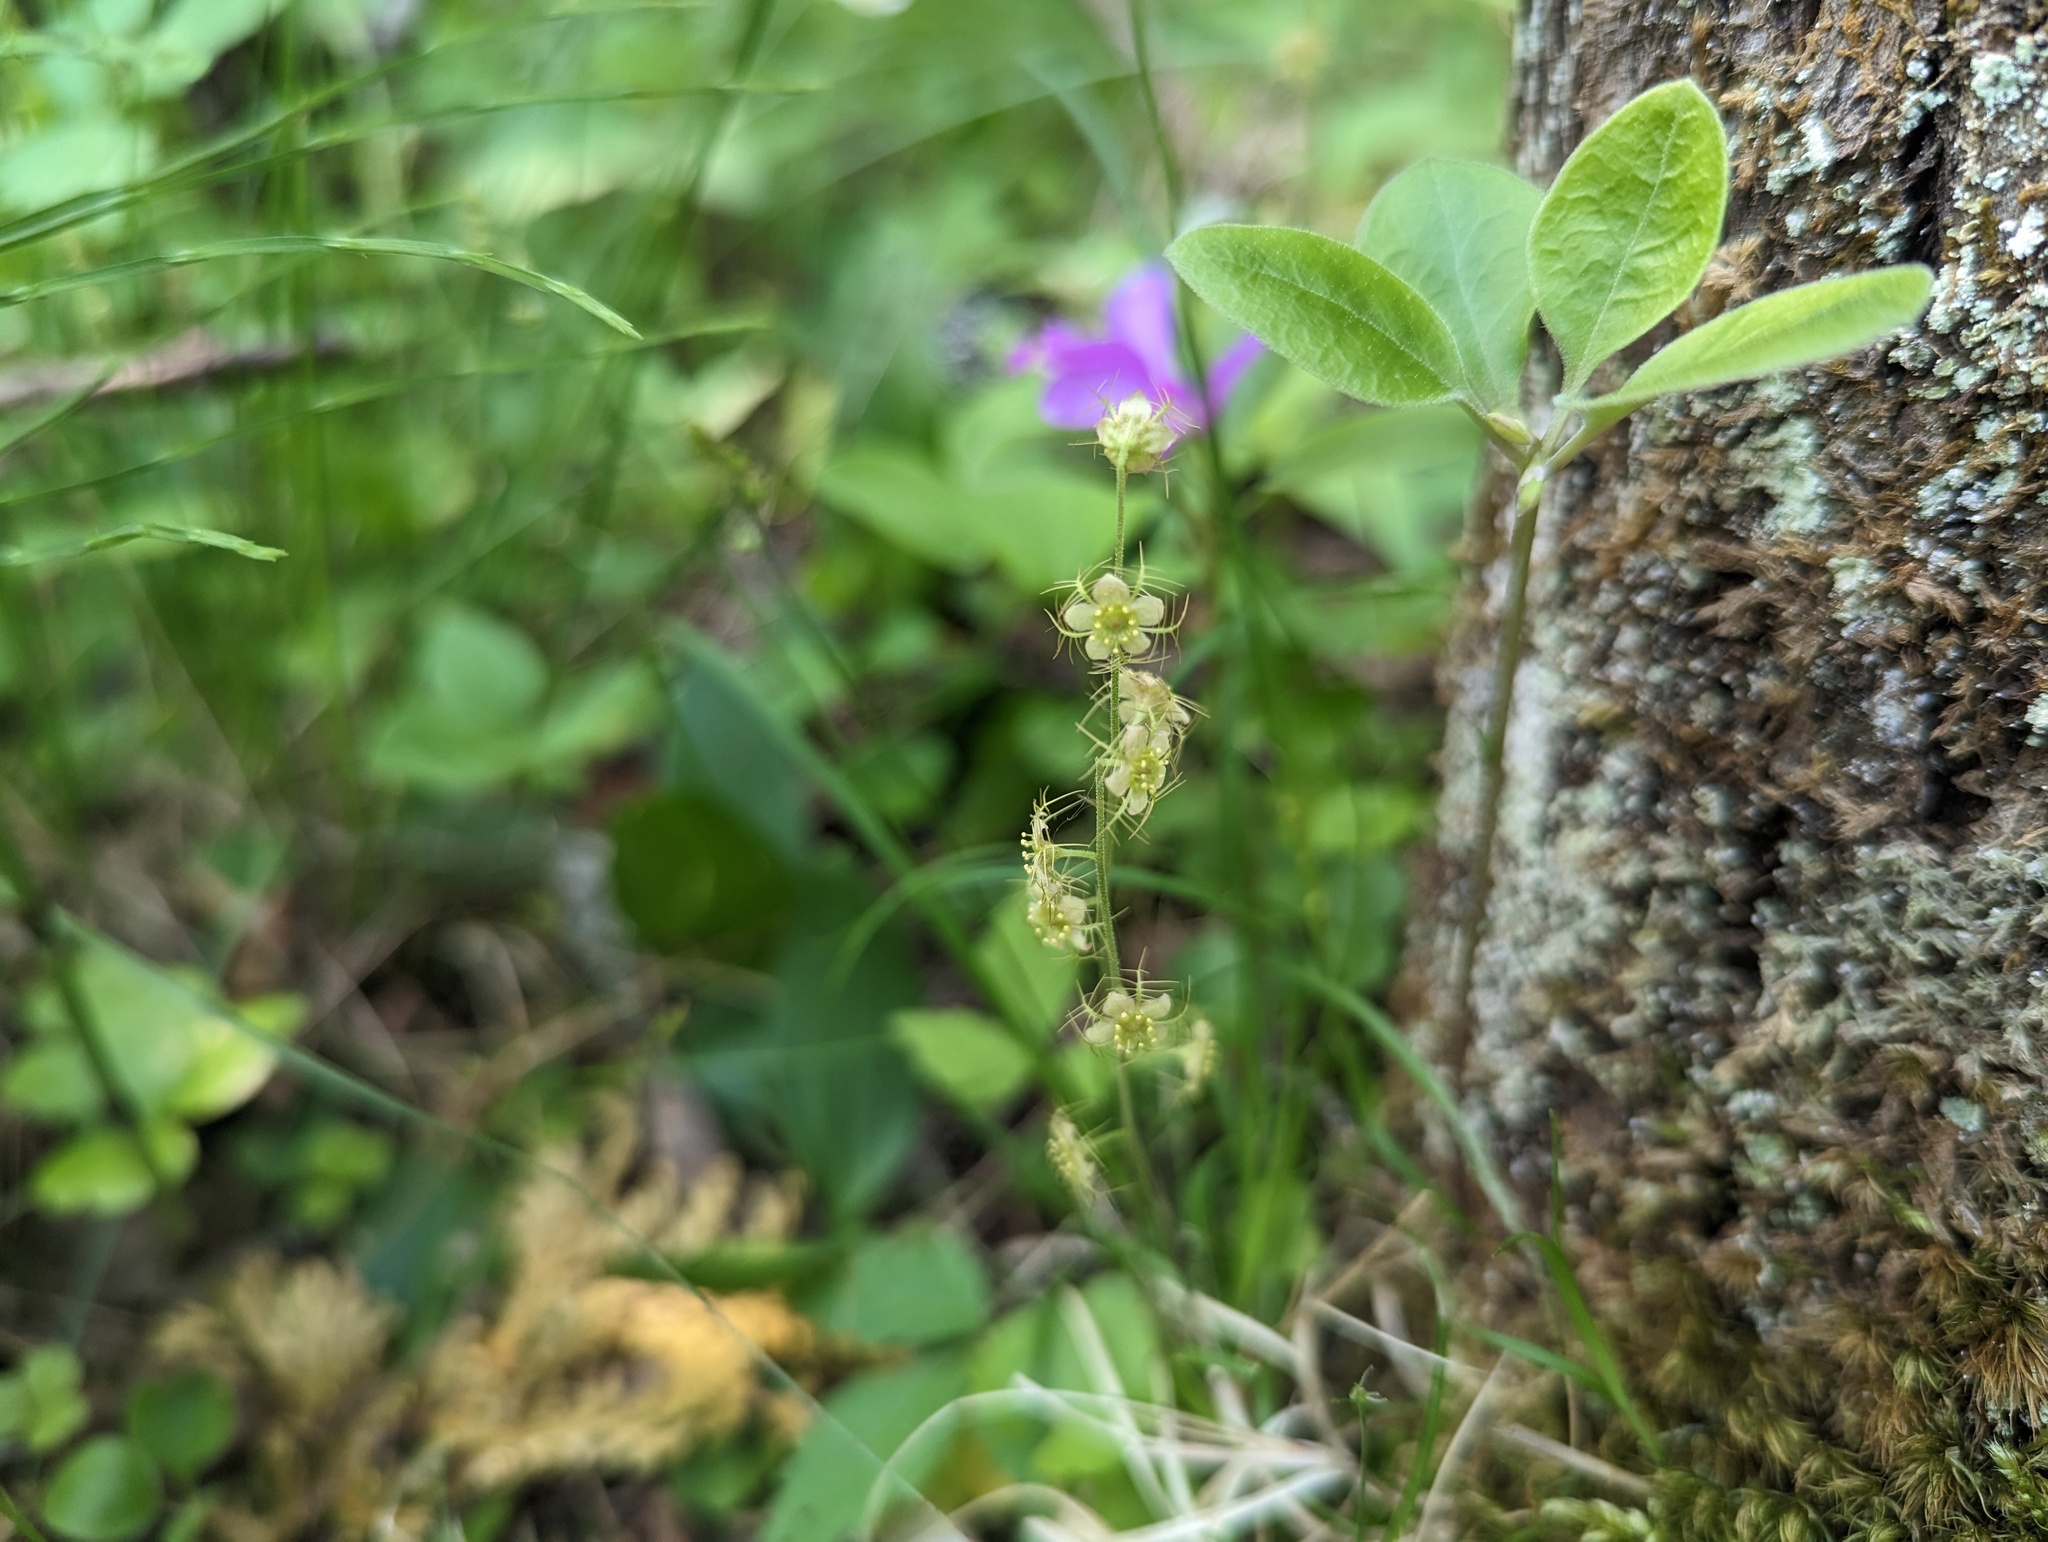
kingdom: Plantae
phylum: Tracheophyta
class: Magnoliopsida
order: Saxifragales
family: Saxifragaceae
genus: Mitella
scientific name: Mitella nuda
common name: Bare-stemmed bishop's-cap
